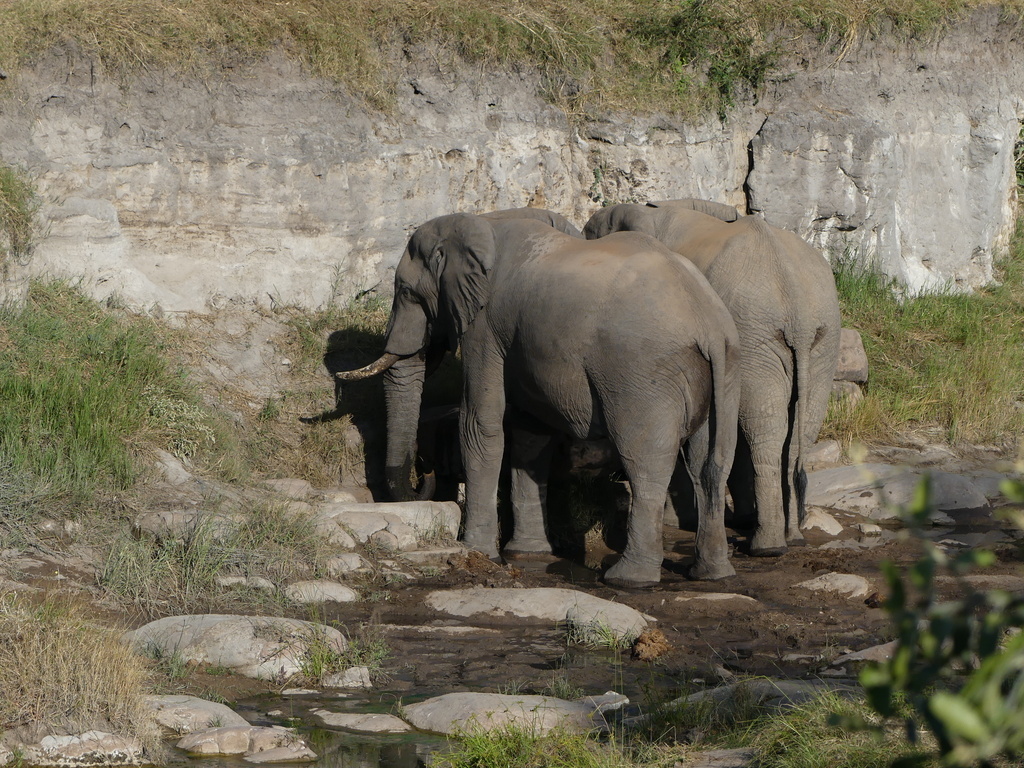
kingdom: Animalia
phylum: Chordata
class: Mammalia
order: Proboscidea
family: Elephantidae
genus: Loxodonta
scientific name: Loxodonta africana
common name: African elephant
